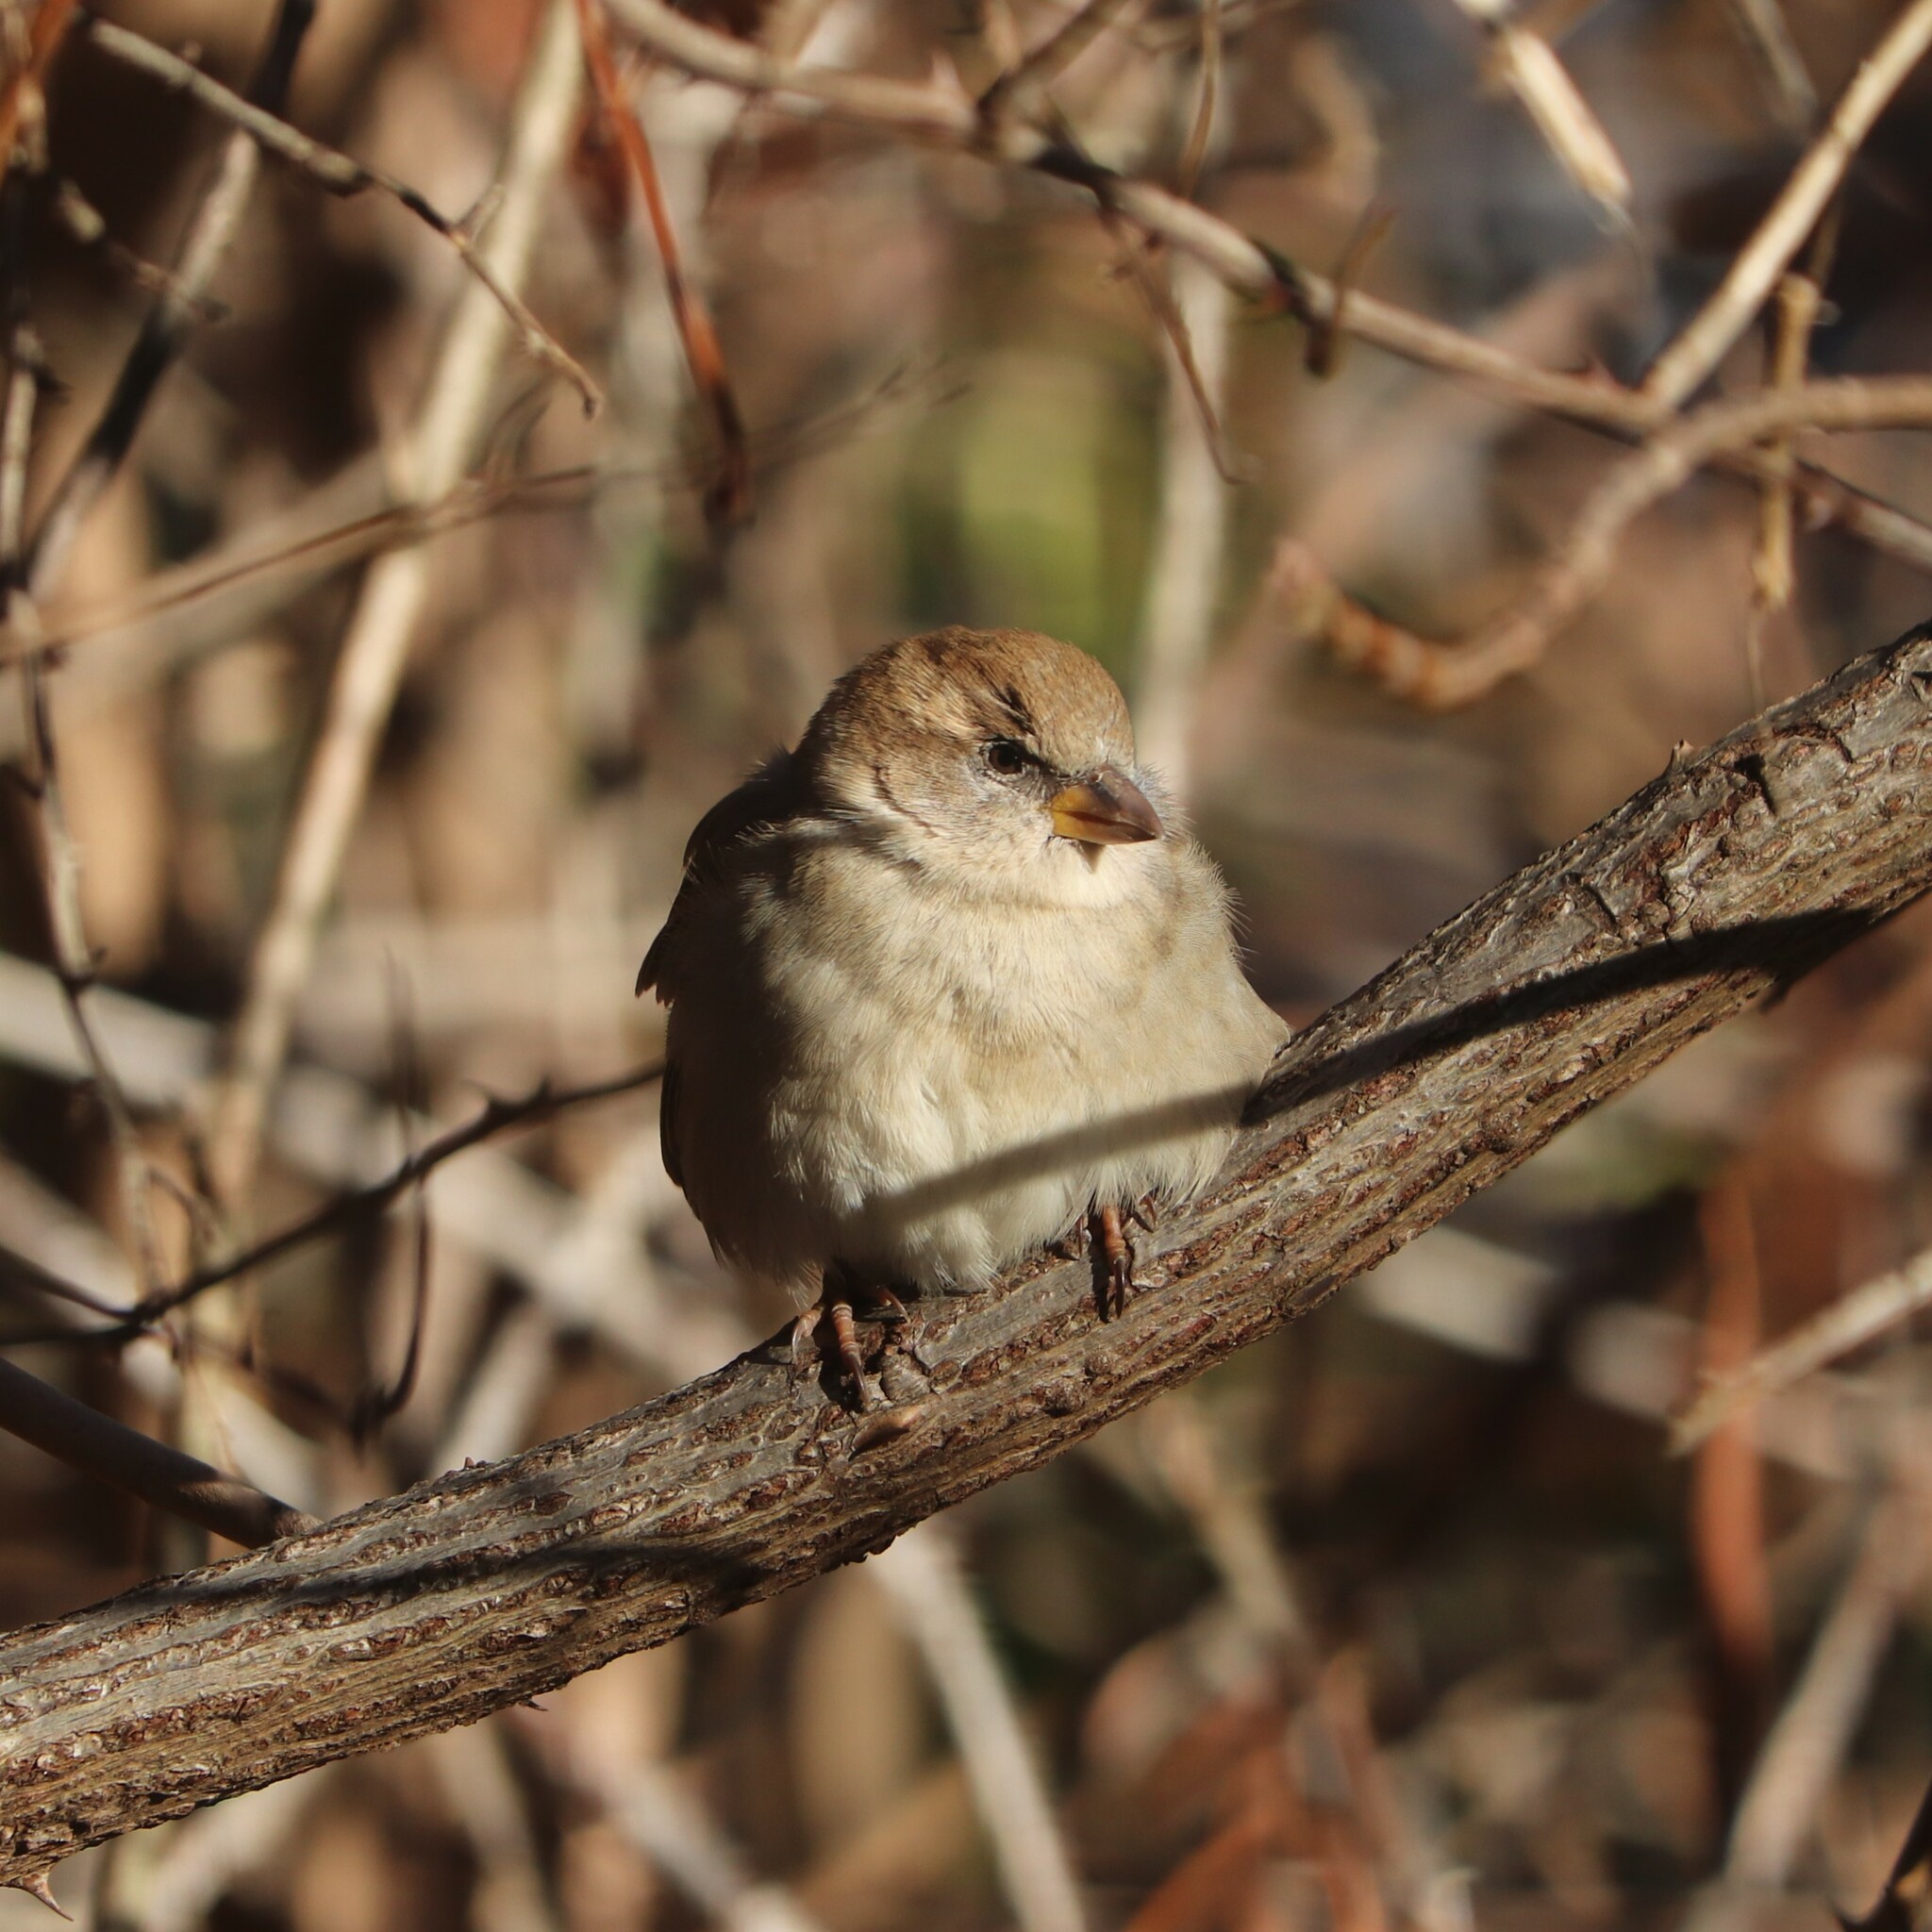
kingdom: Animalia
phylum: Chordata
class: Aves
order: Passeriformes
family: Passeridae
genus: Passer
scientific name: Passer domesticus
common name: House sparrow
